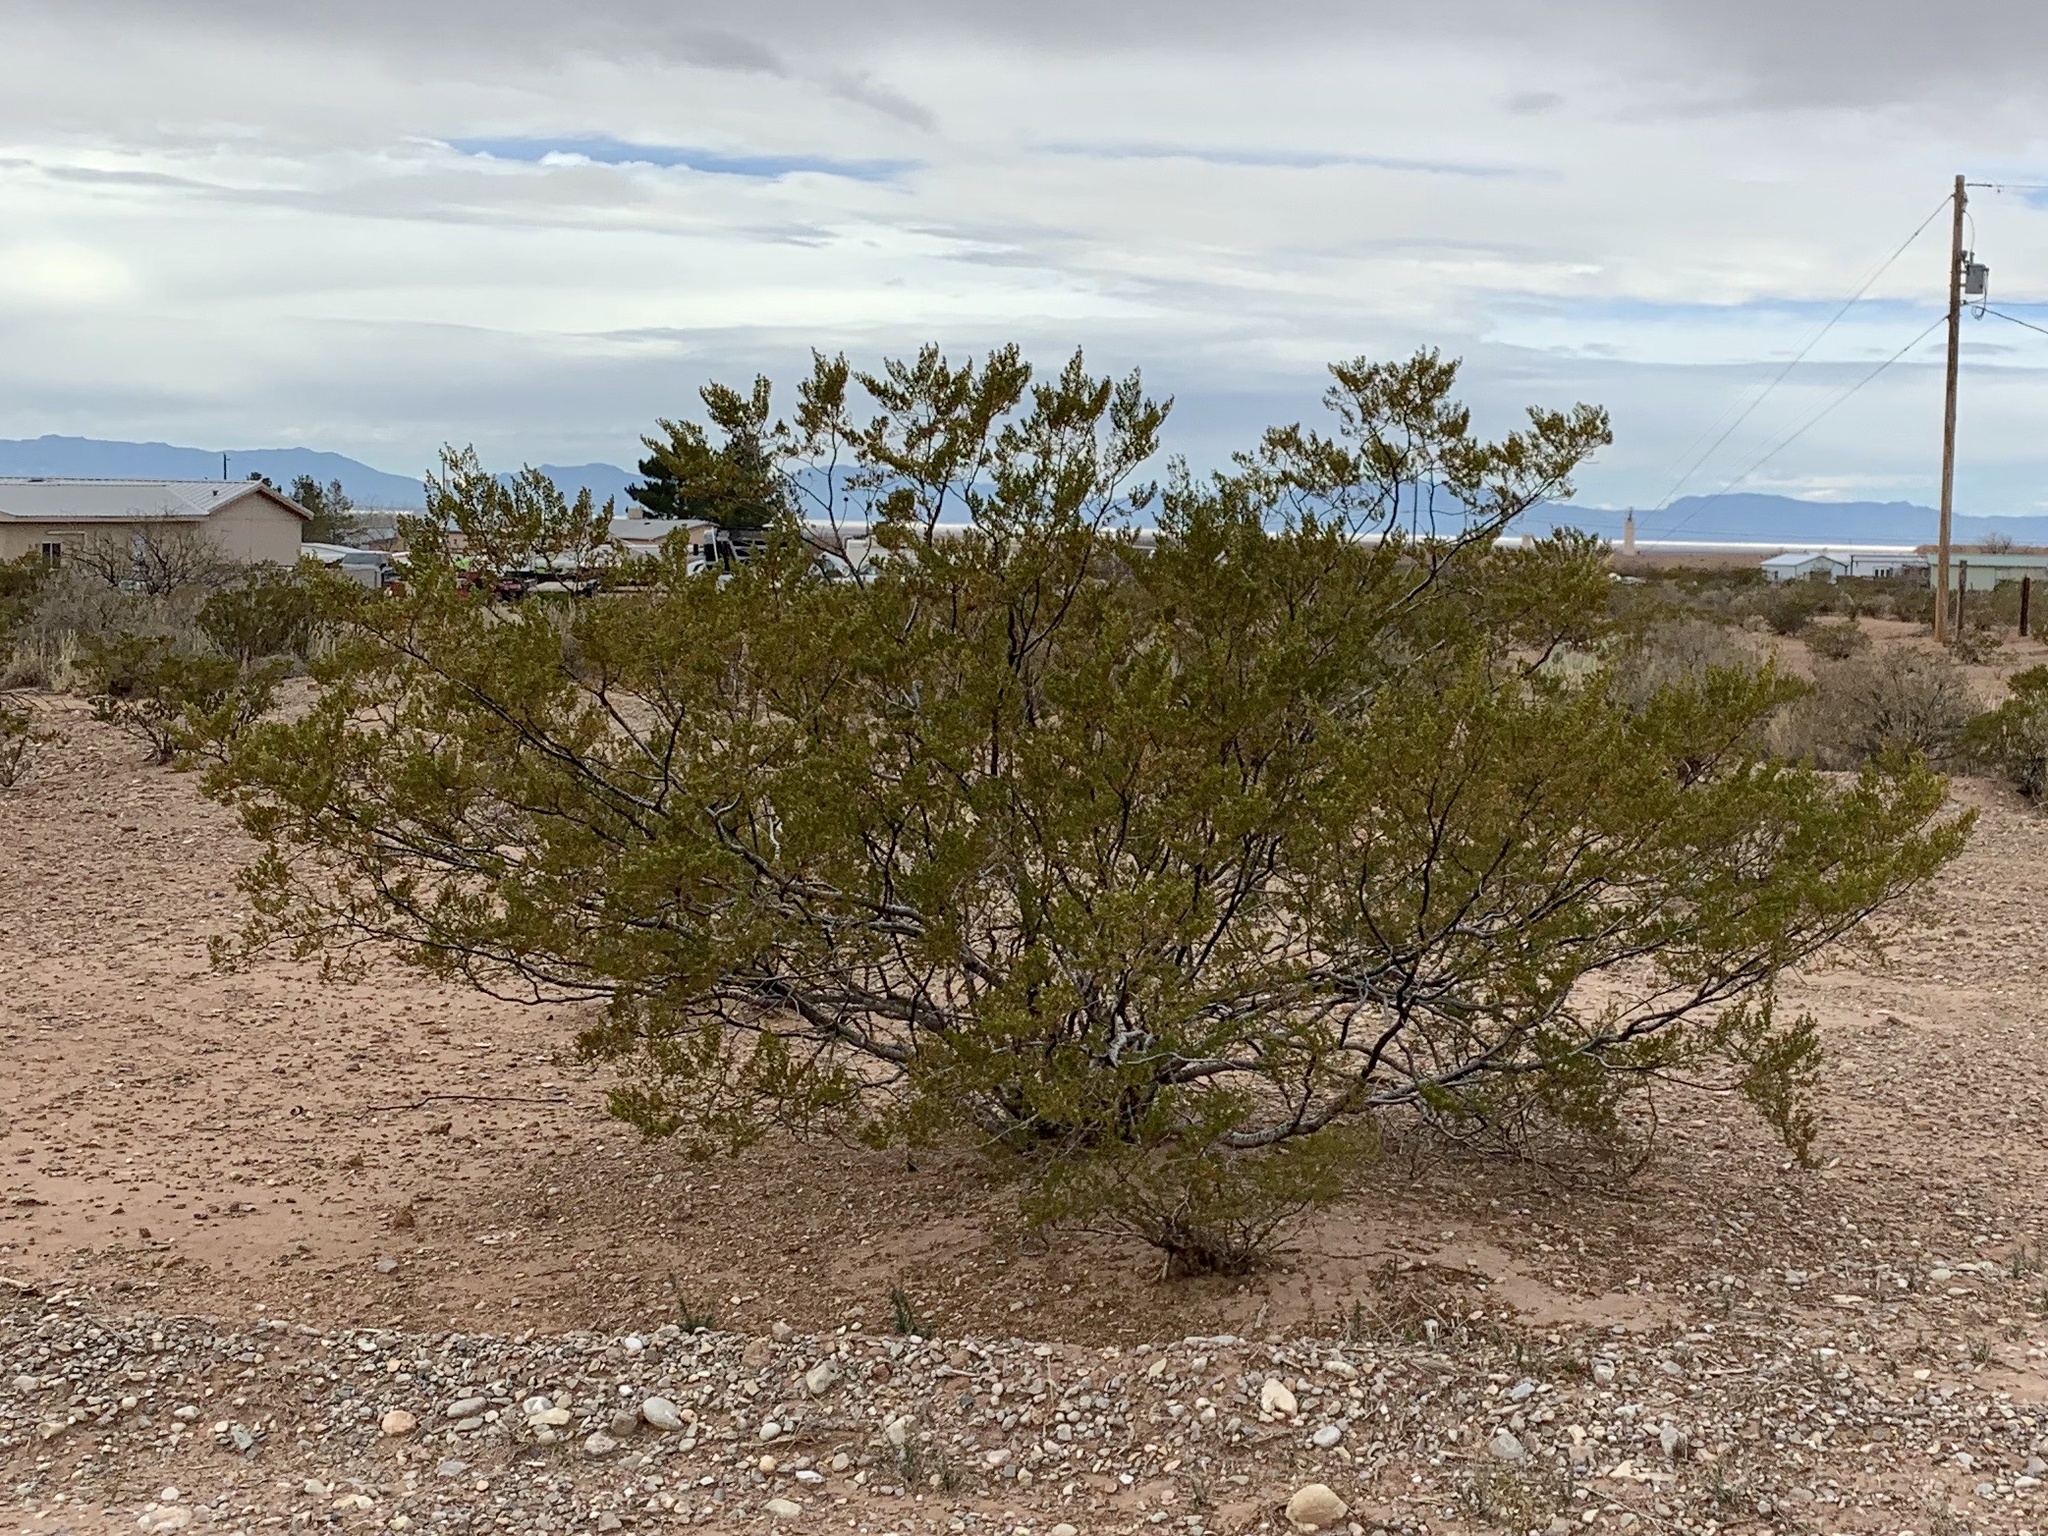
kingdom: Plantae
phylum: Tracheophyta
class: Magnoliopsida
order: Zygophyllales
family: Zygophyllaceae
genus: Larrea
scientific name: Larrea tridentata
